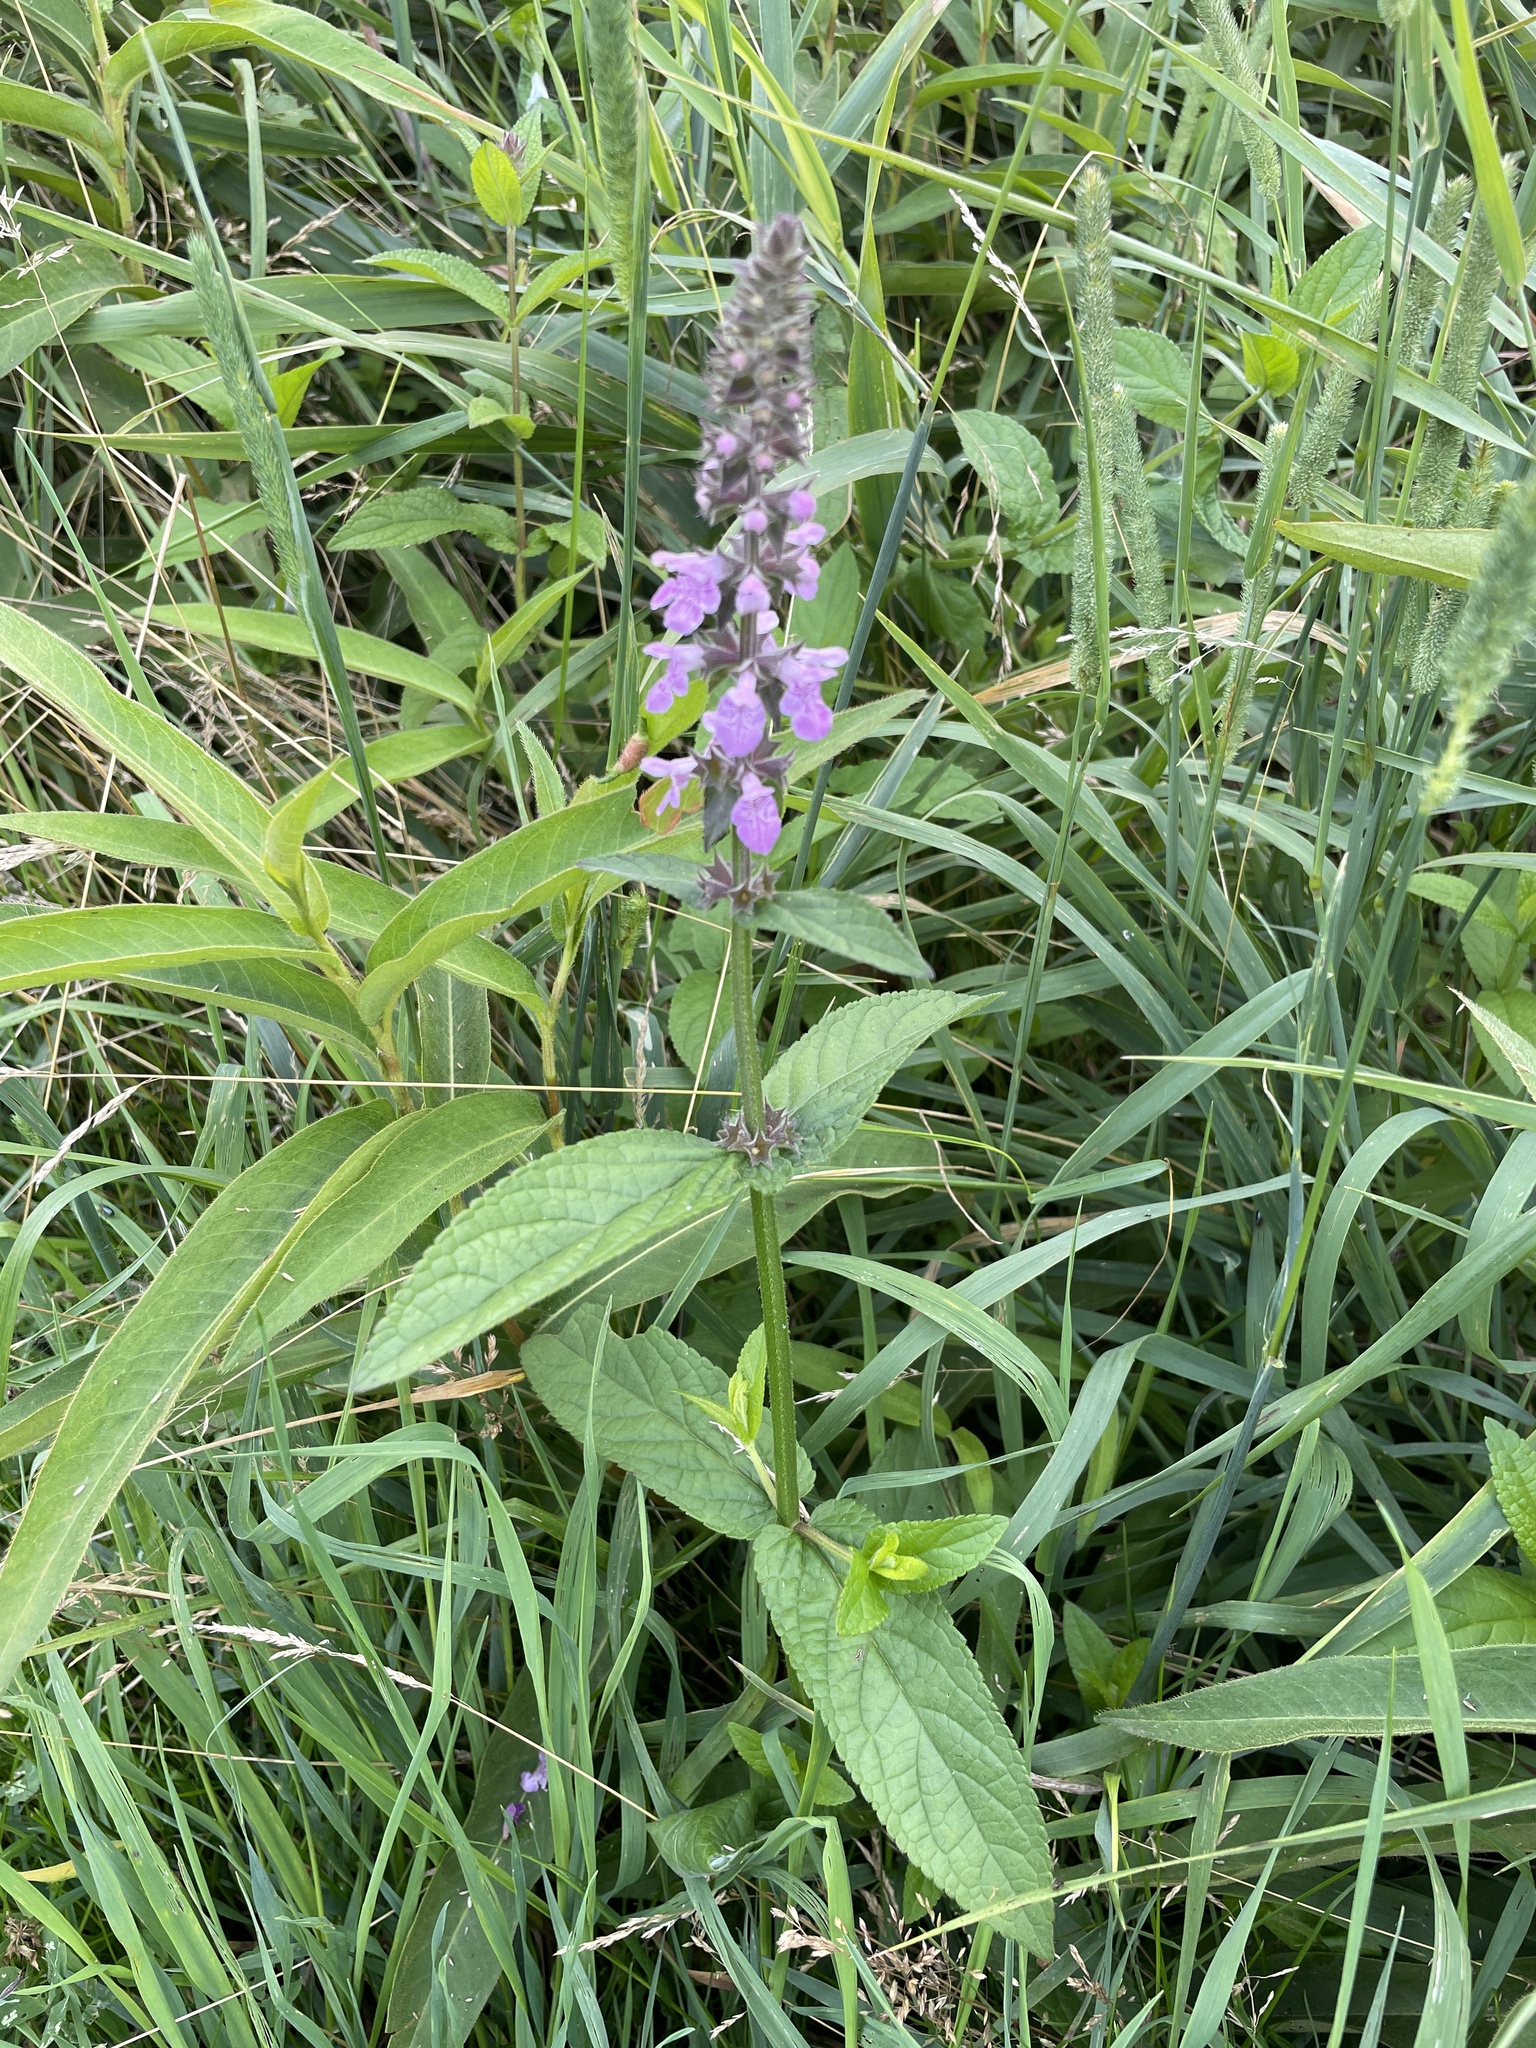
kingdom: Plantae
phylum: Tracheophyta
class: Magnoliopsida
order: Lamiales
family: Lamiaceae
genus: Stachys
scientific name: Stachys palustris
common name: Marsh woundwort
